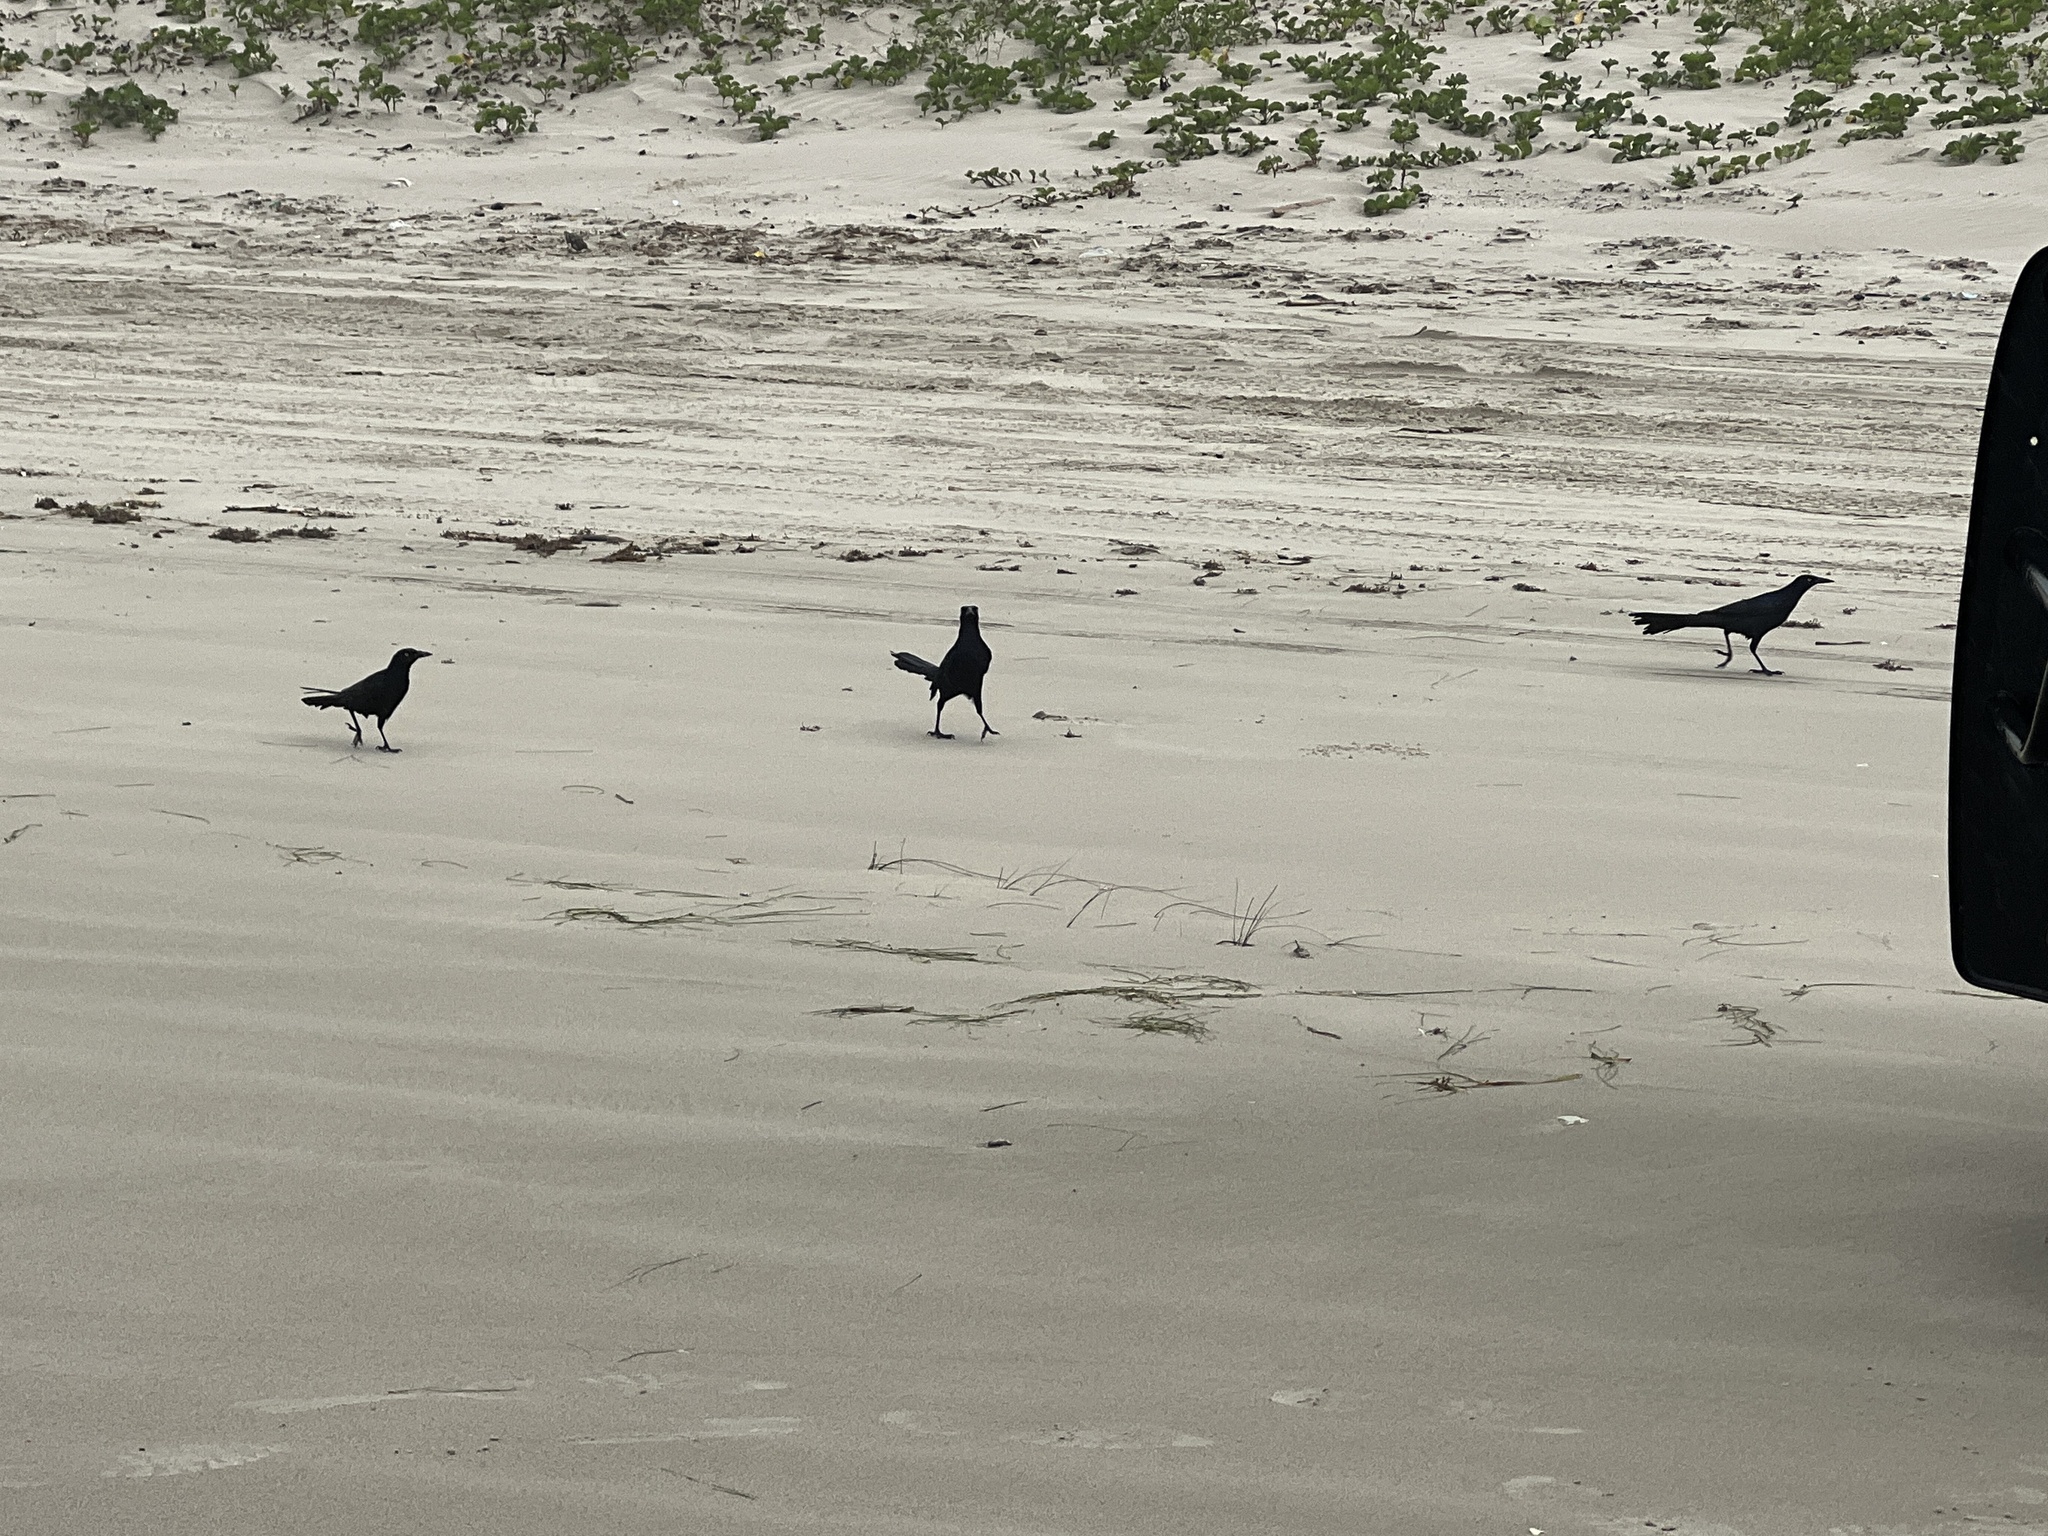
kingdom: Animalia
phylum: Chordata
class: Aves
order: Passeriformes
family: Icteridae
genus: Quiscalus
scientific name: Quiscalus mexicanus
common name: Great-tailed grackle
